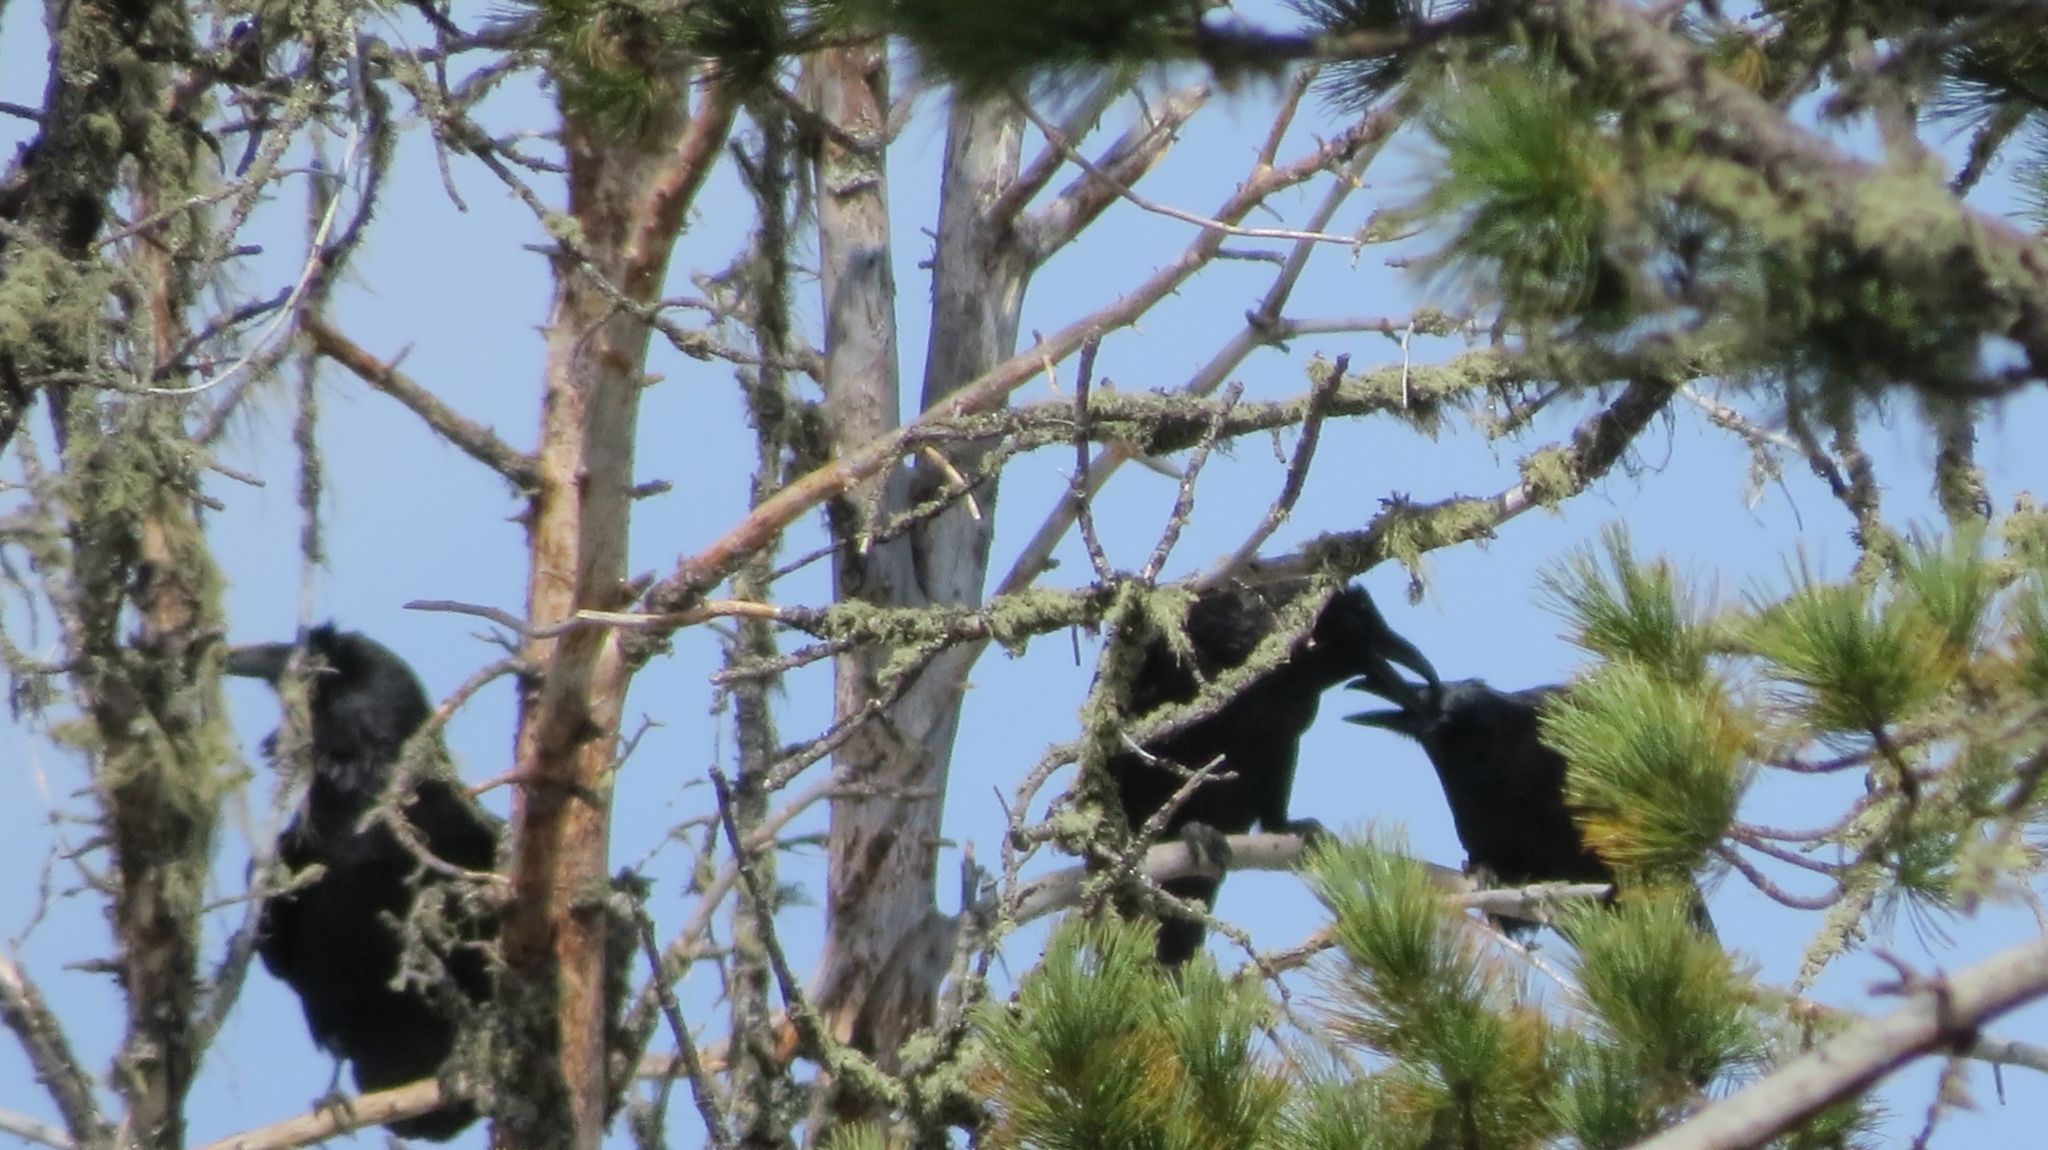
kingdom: Animalia
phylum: Chordata
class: Aves
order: Passeriformes
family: Corvidae
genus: Corvus
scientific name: Corvus corax
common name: Common raven
